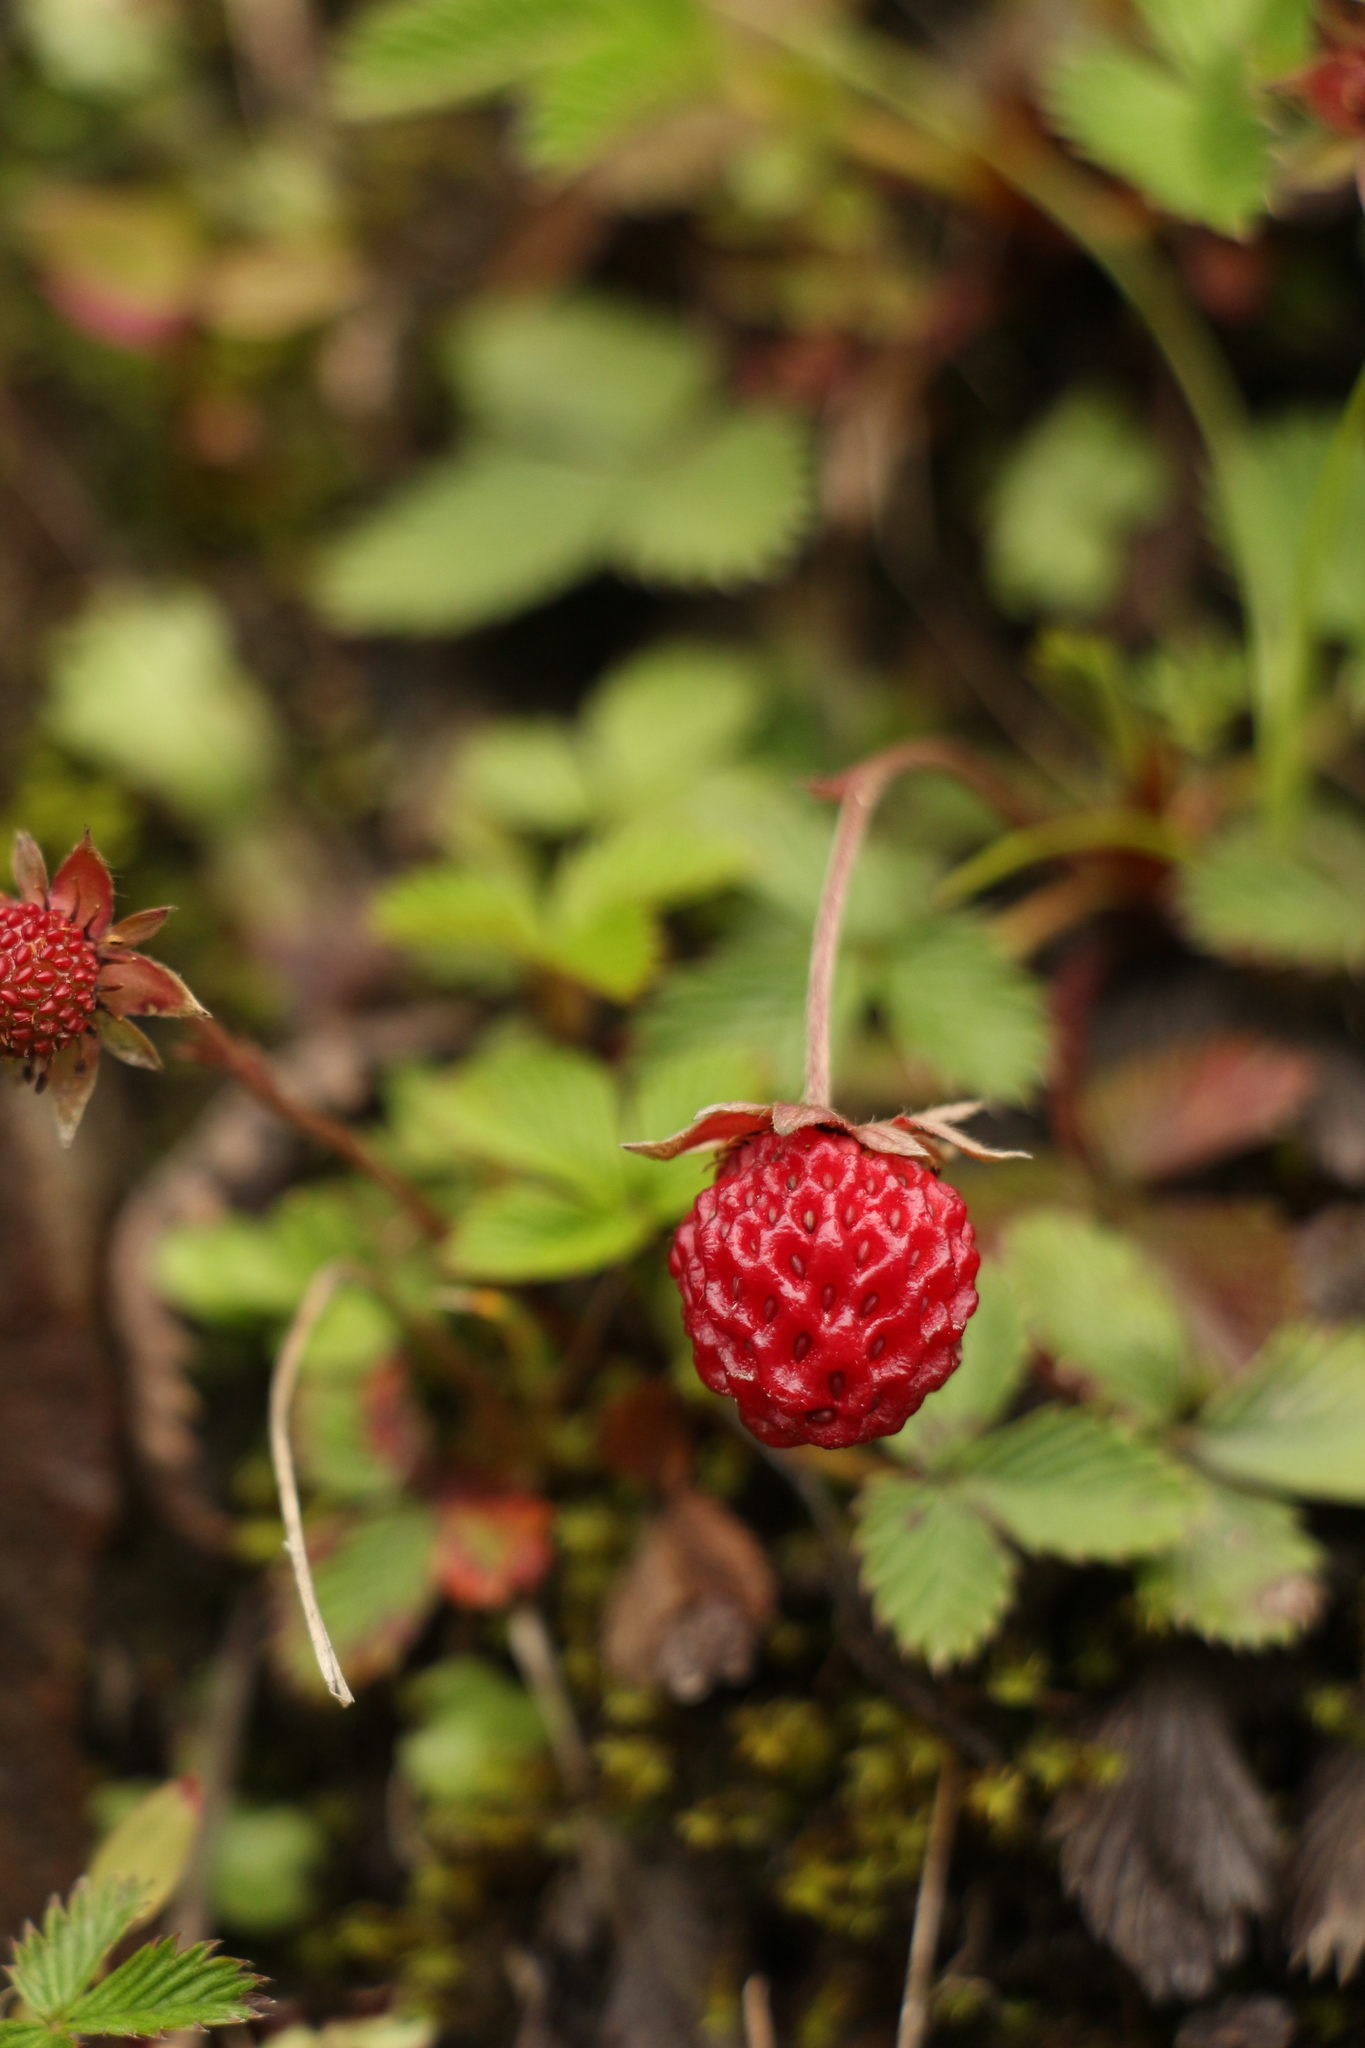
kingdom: Plantae
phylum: Tracheophyta
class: Magnoliopsida
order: Rosales
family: Rosaceae
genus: Fragaria
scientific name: Fragaria nubicola
